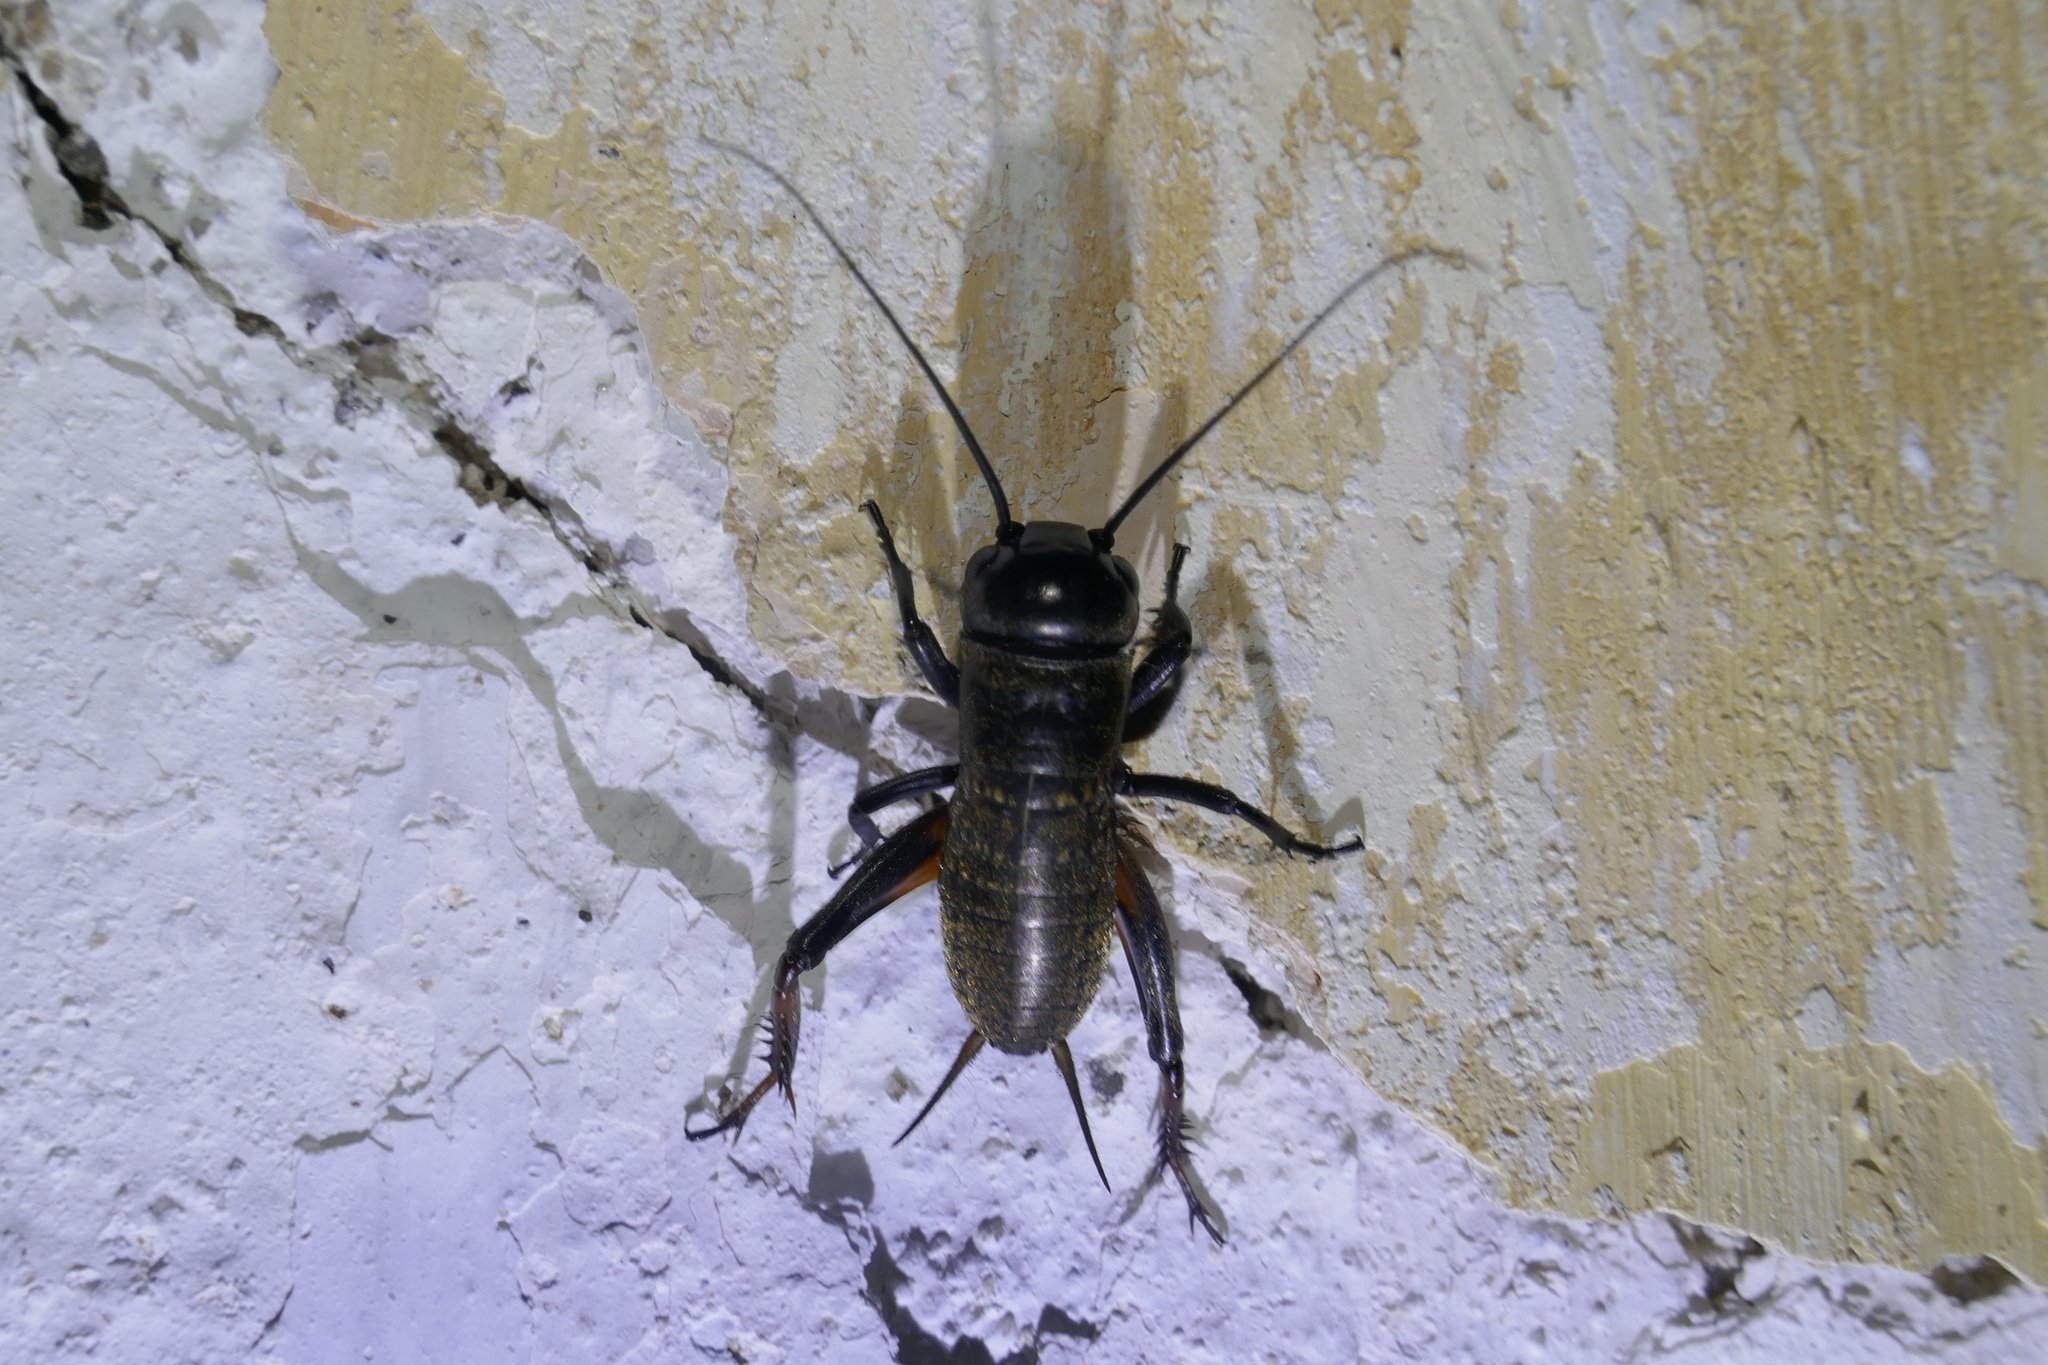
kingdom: Animalia
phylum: Arthropoda
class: Insecta
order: Orthoptera
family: Gryllidae
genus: Gryllus
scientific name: Gryllus campestris
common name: Field cricket
